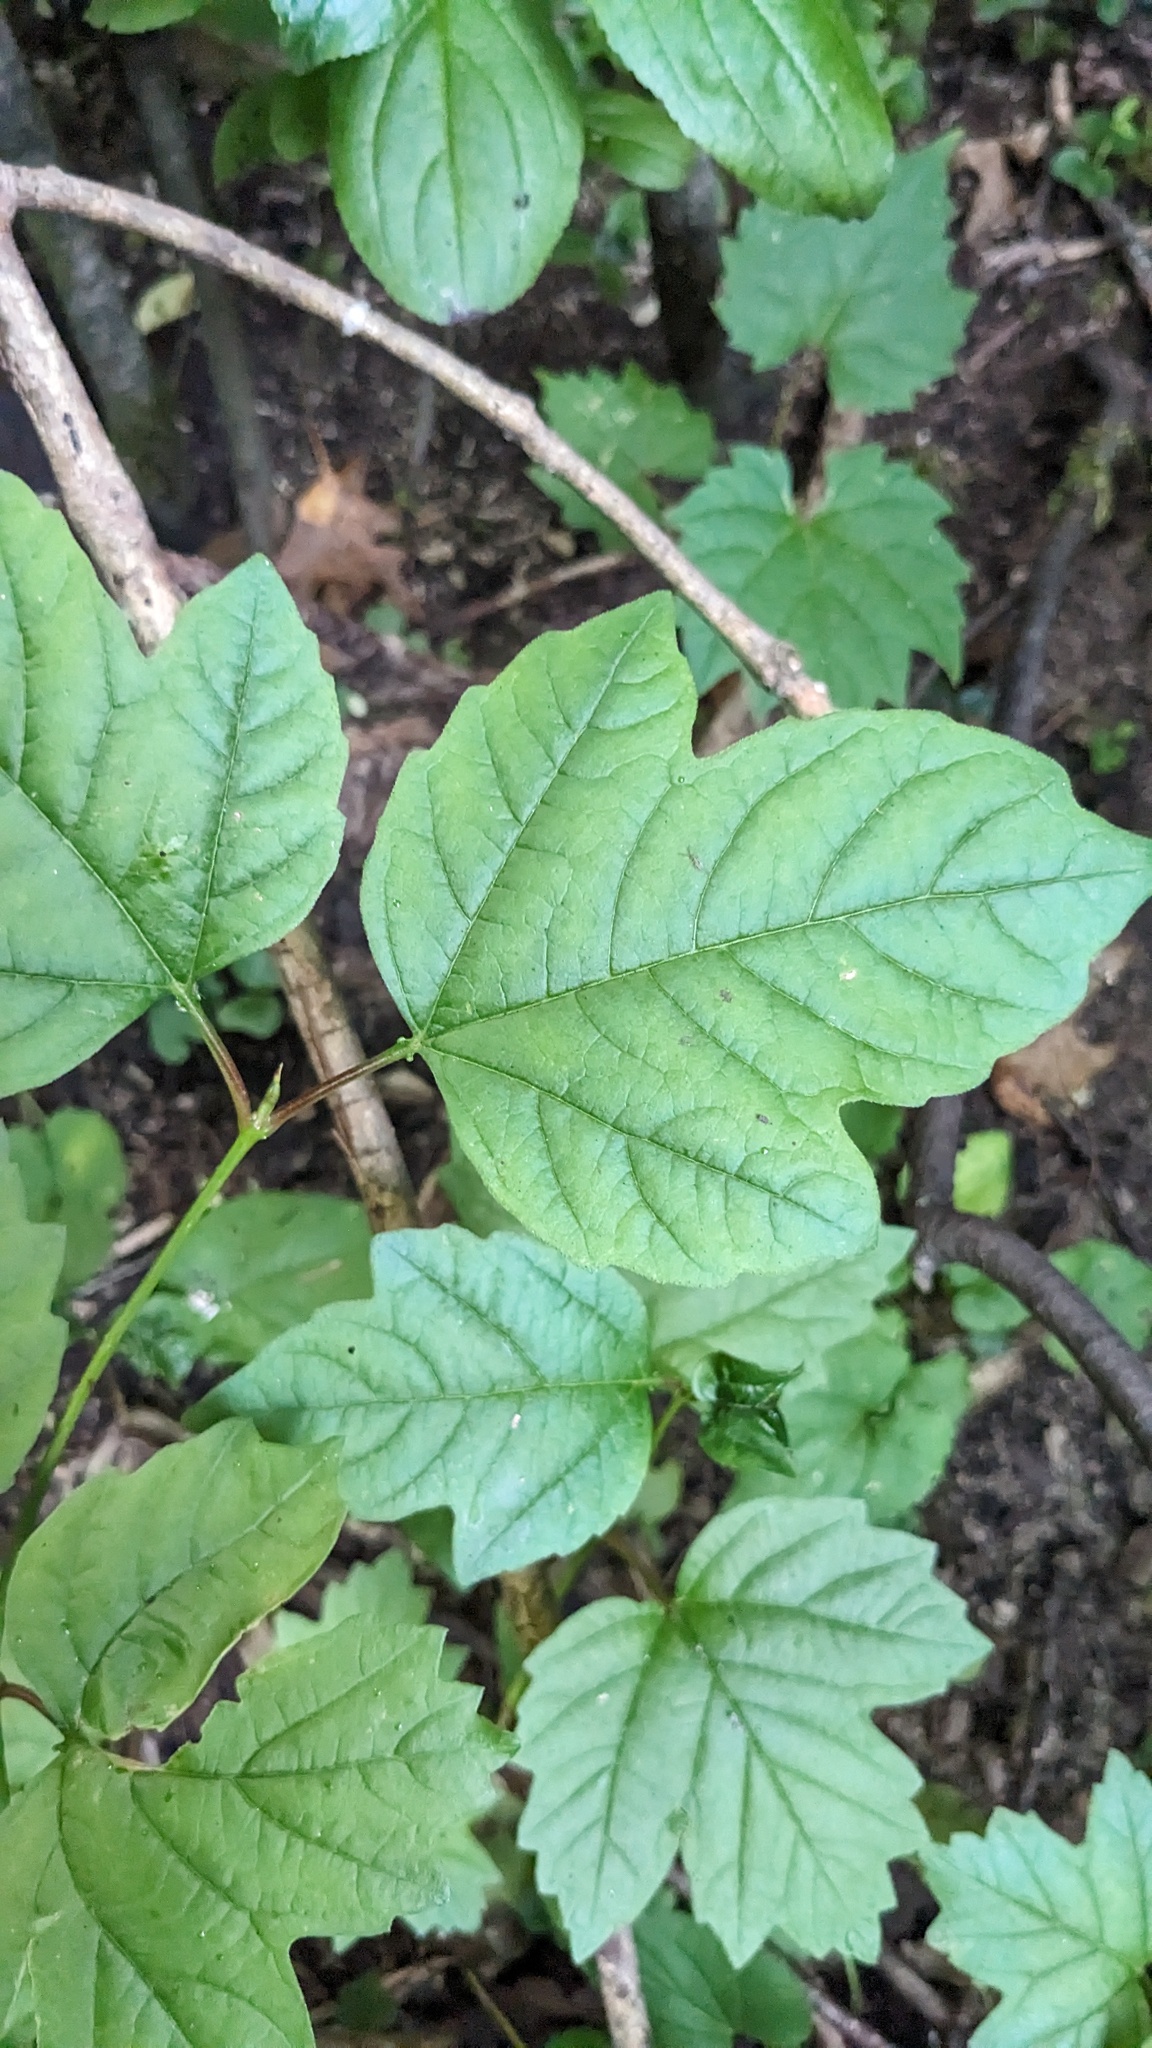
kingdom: Plantae
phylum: Tracheophyta
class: Magnoliopsida
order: Dipsacales
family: Viburnaceae
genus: Viburnum
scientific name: Viburnum opulus
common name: Guelder-rose
